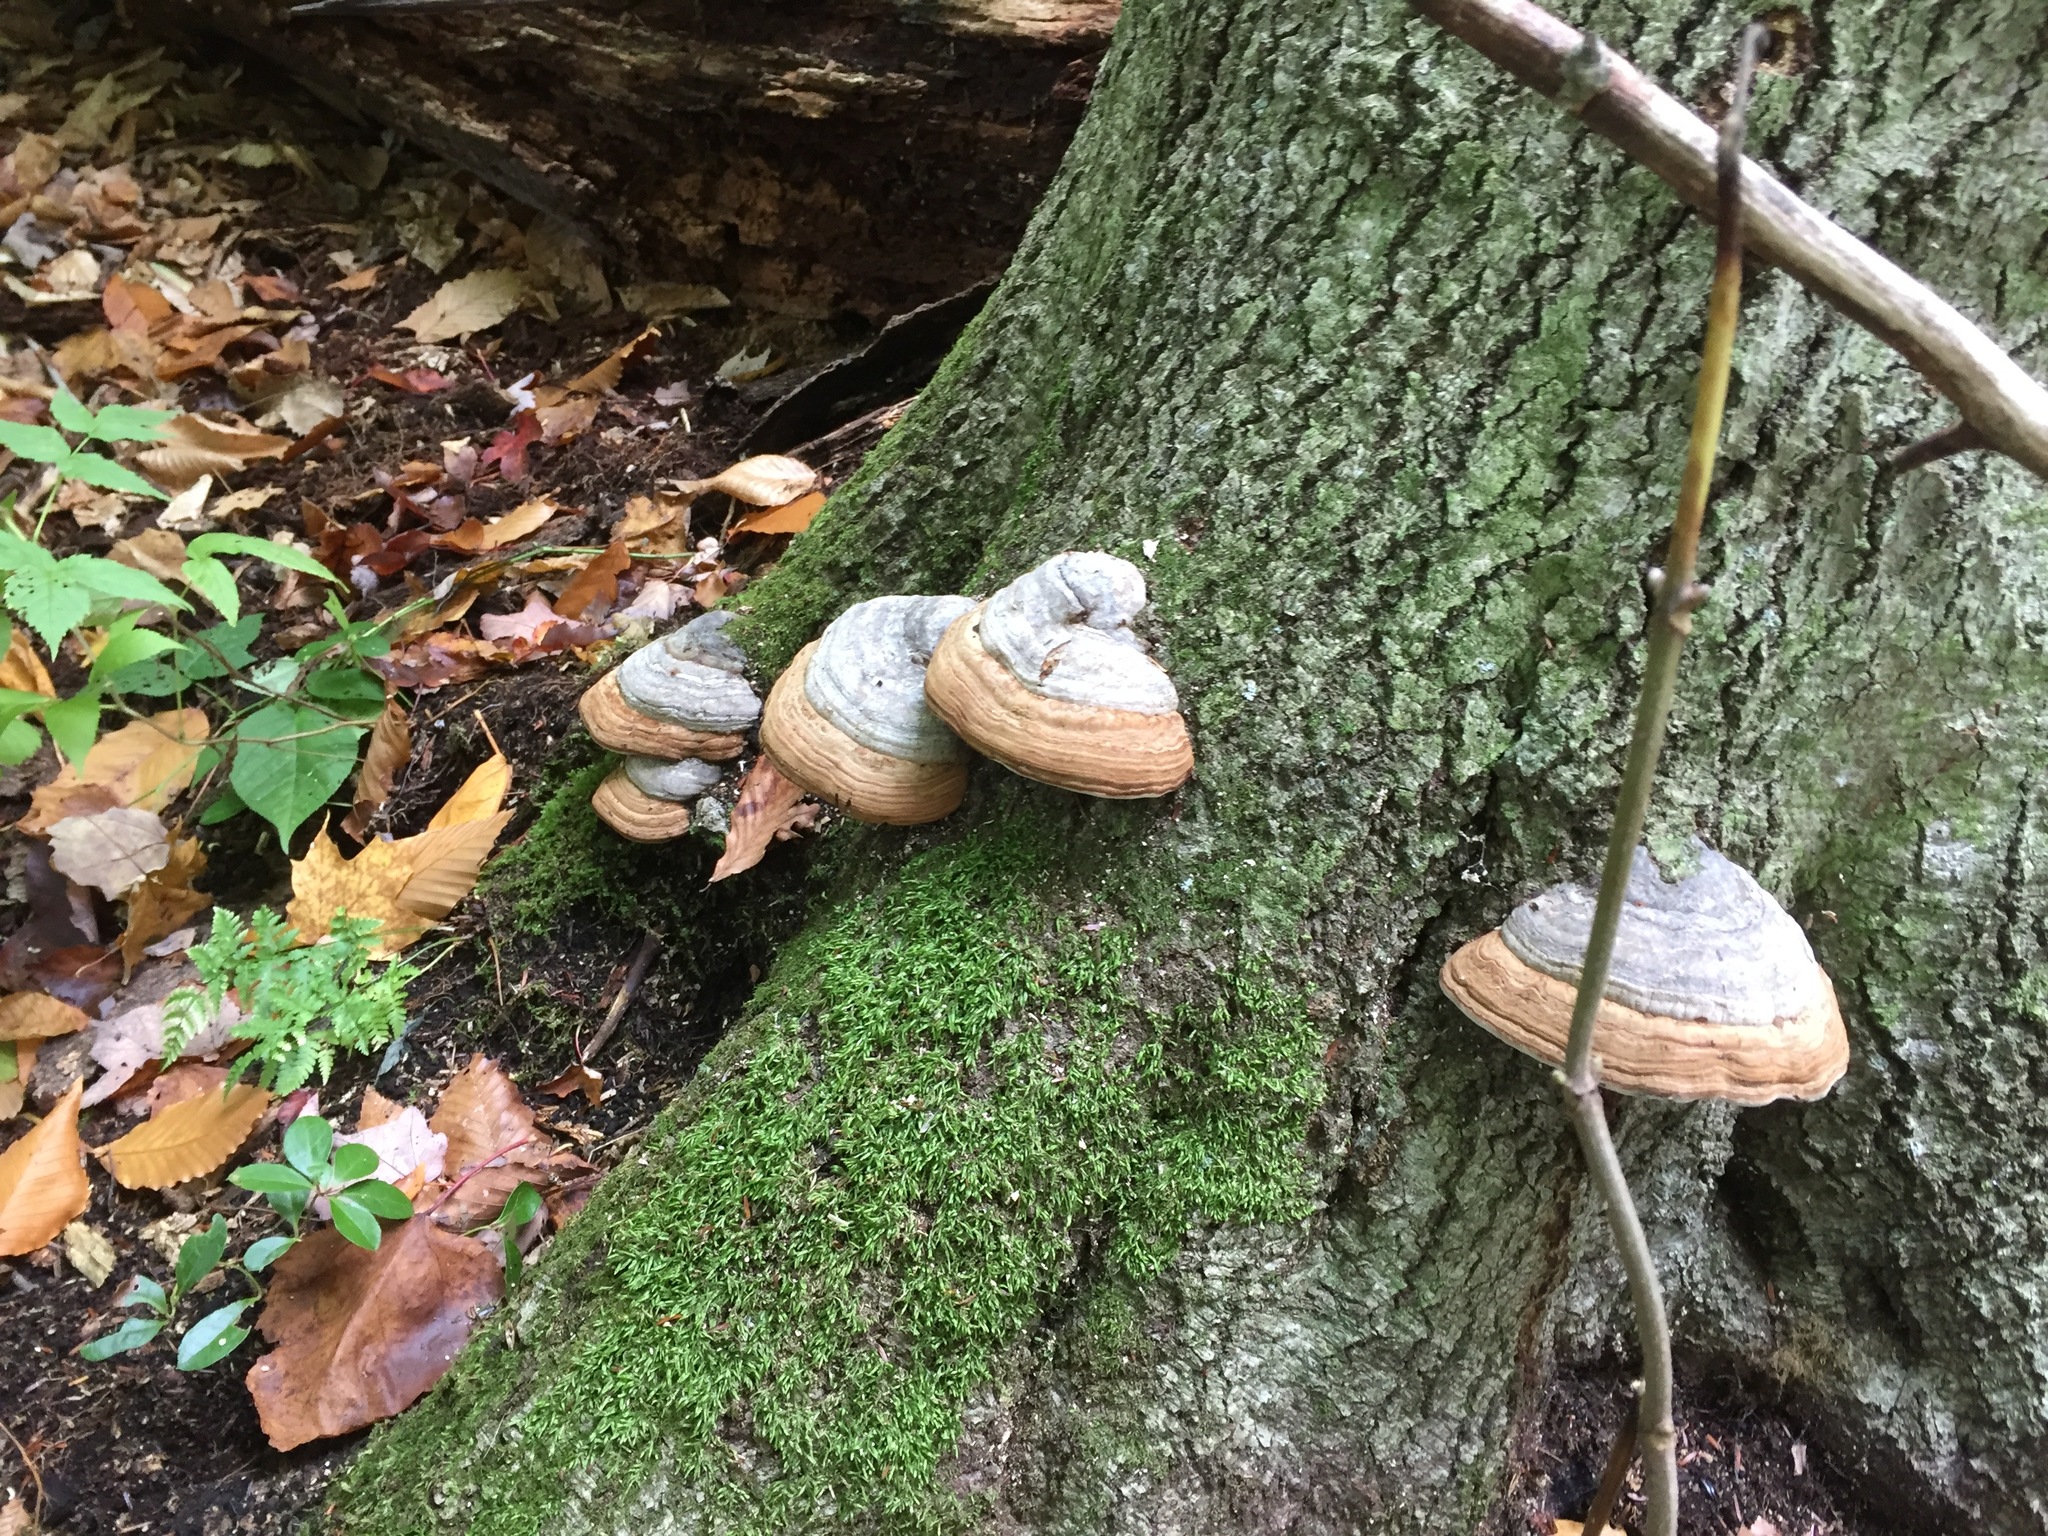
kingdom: Fungi
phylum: Basidiomycota
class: Agaricomycetes
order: Polyporales
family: Polyporaceae
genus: Fomes
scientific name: Fomes fomentarius
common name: Hoof fungus
